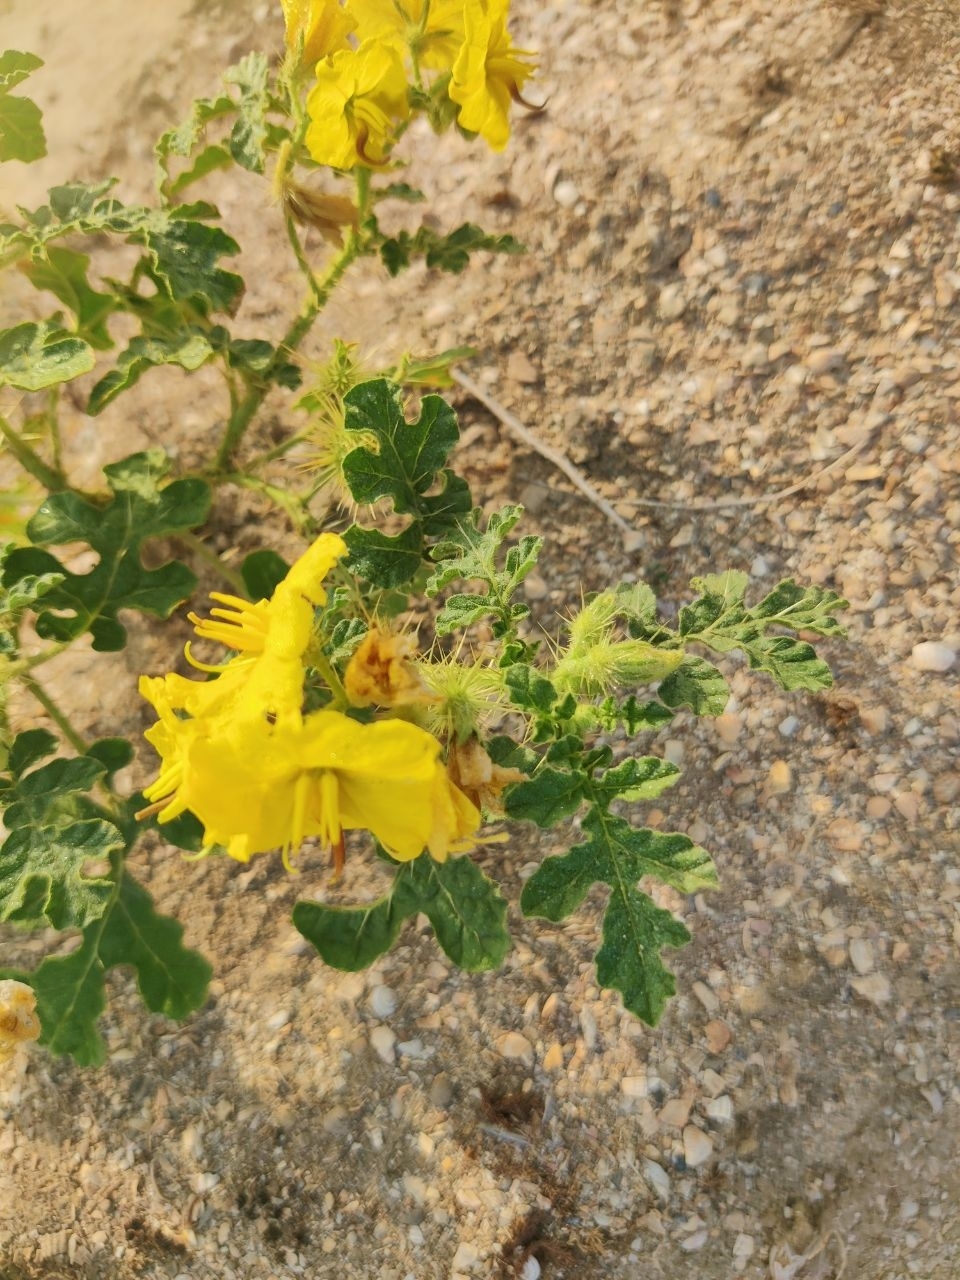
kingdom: Plantae
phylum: Tracheophyta
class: Magnoliopsida
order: Solanales
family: Solanaceae
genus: Solanum
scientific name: Solanum angustifolium
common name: Buffalobur nightshade
